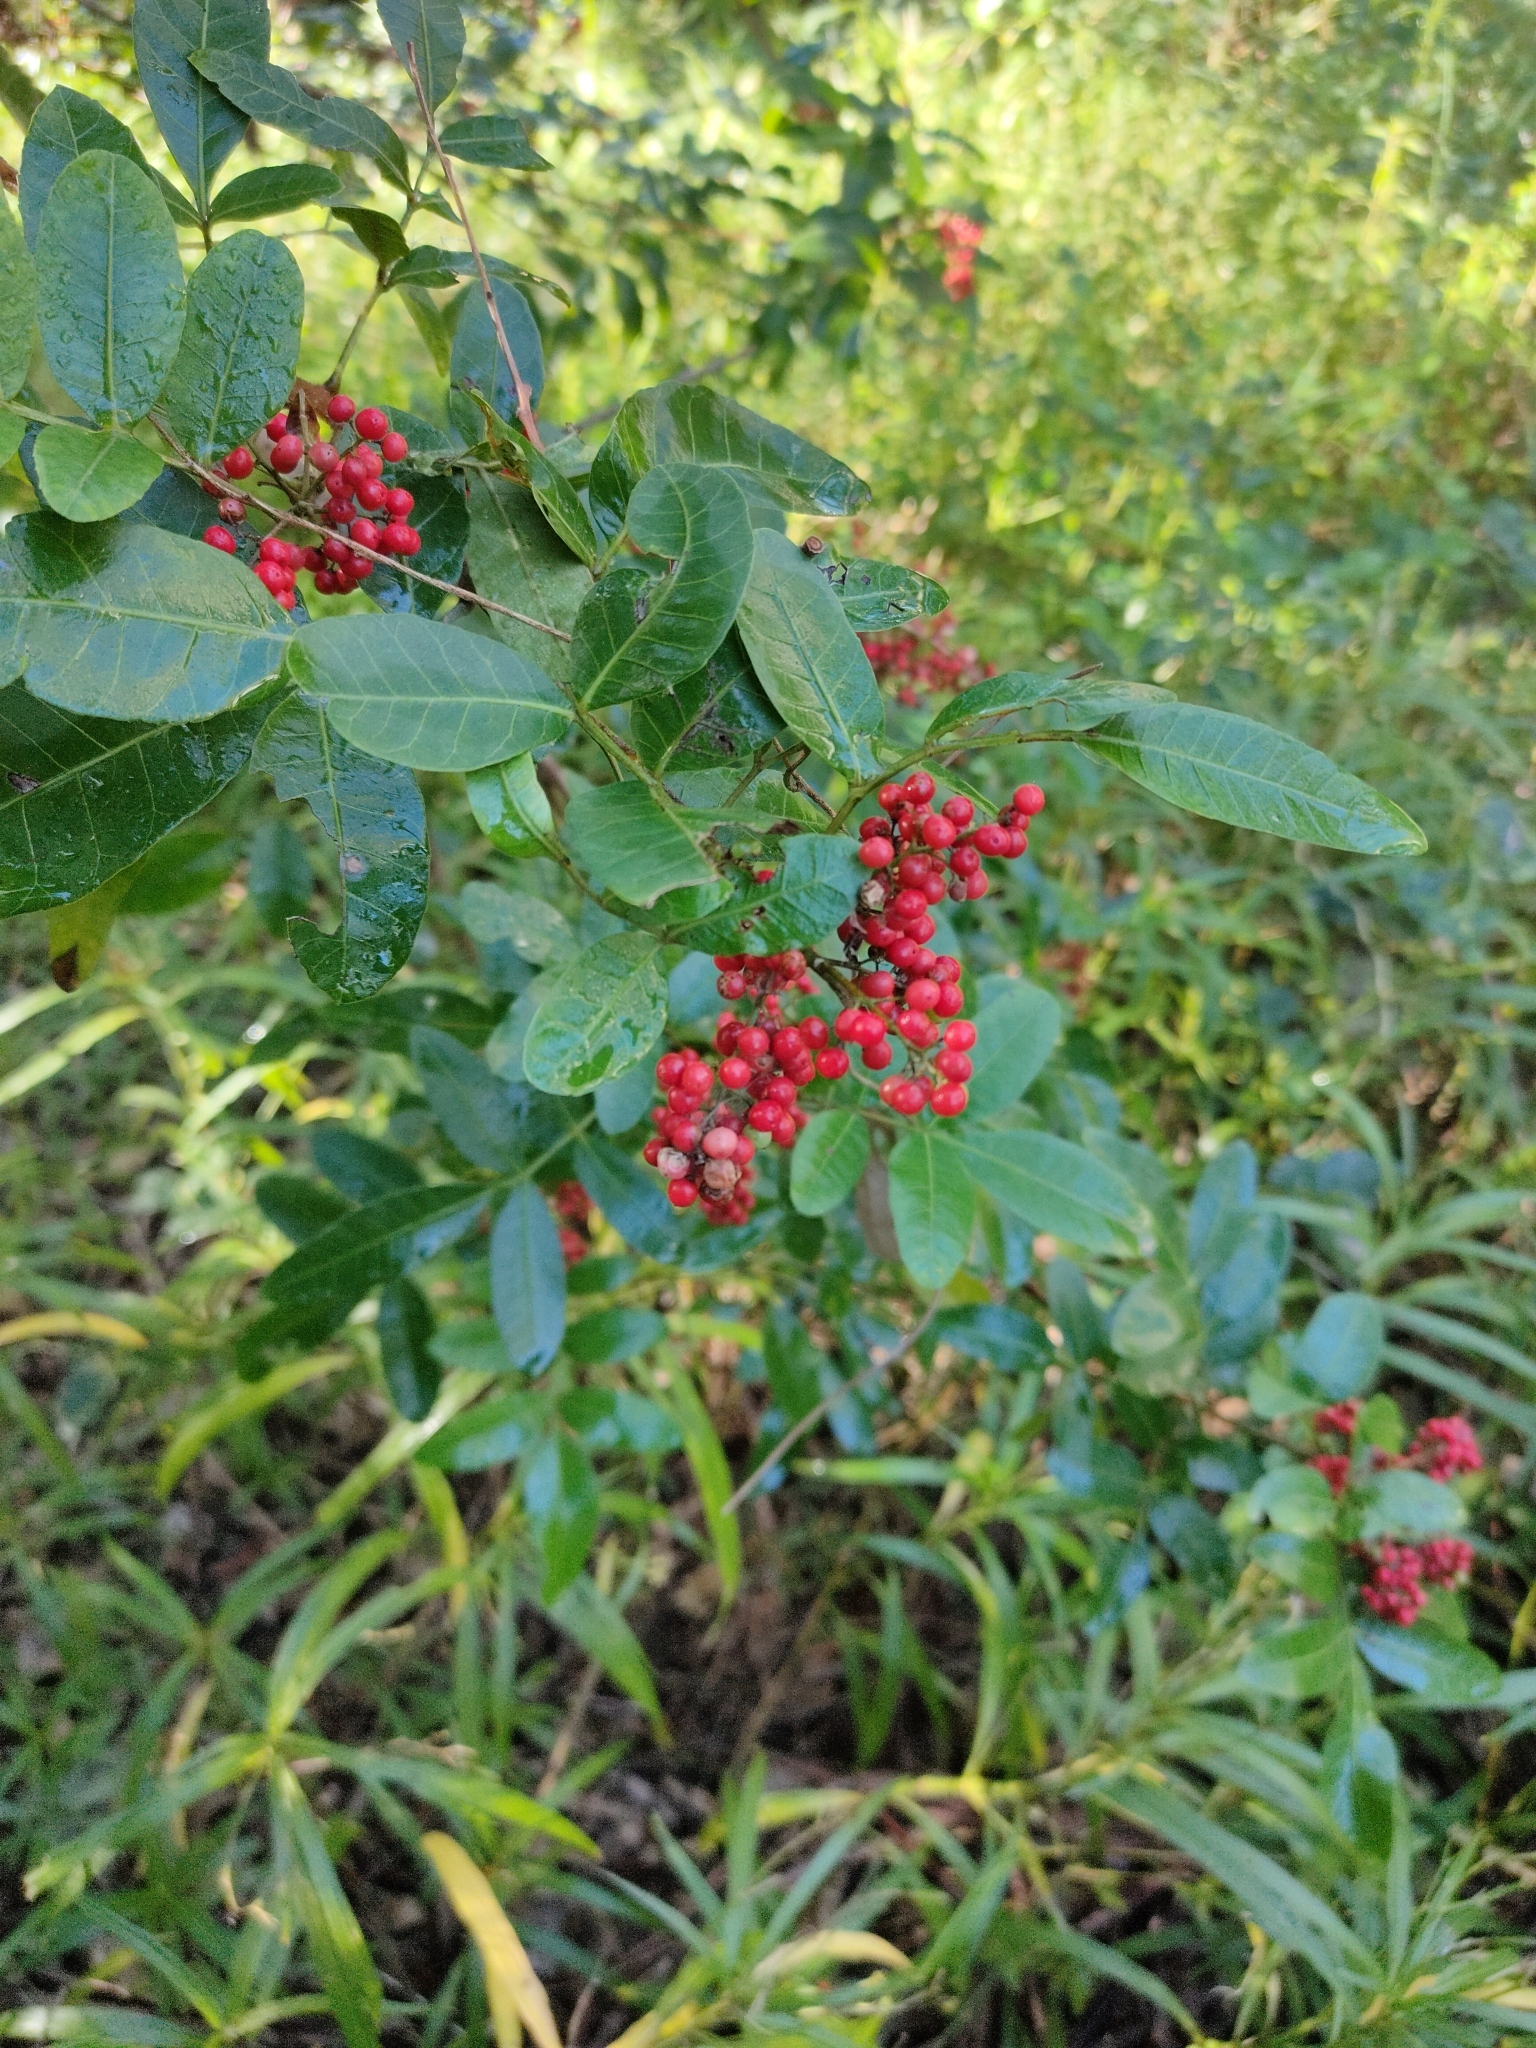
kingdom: Plantae
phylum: Tracheophyta
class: Magnoliopsida
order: Sapindales
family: Anacardiaceae
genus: Schinus
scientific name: Schinus terebinthifolia
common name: Brazilian peppertree
